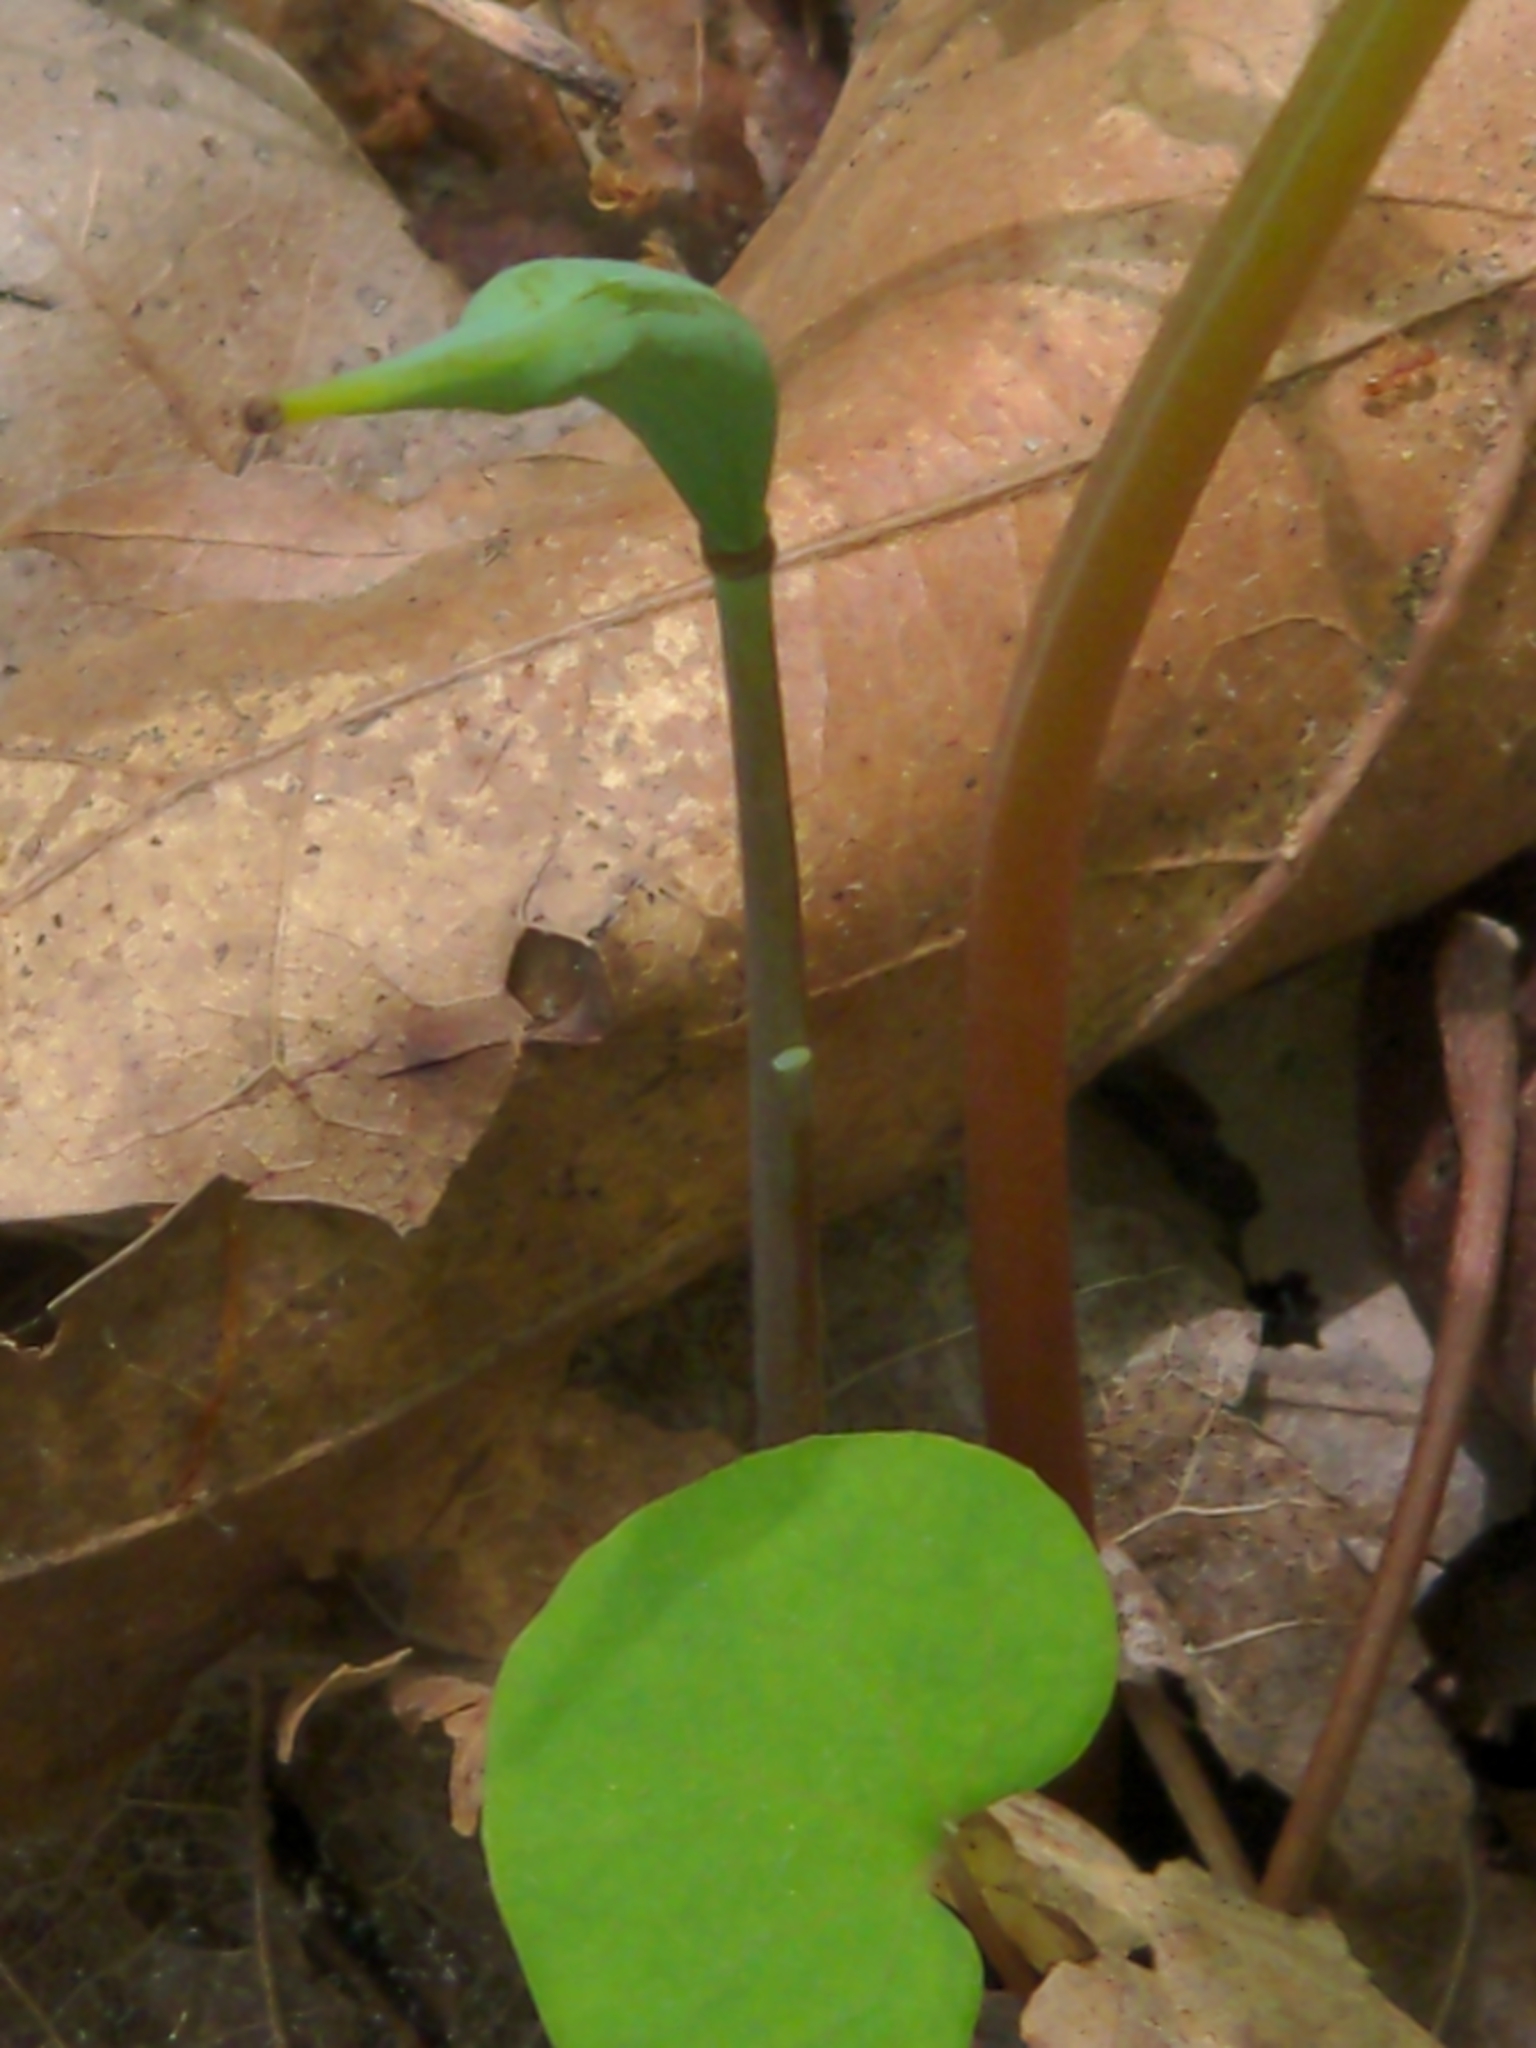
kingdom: Plantae
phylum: Tracheophyta
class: Magnoliopsida
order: Ranunculales
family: Papaveraceae
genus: Sanguinaria
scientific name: Sanguinaria canadensis
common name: Bloodroot
